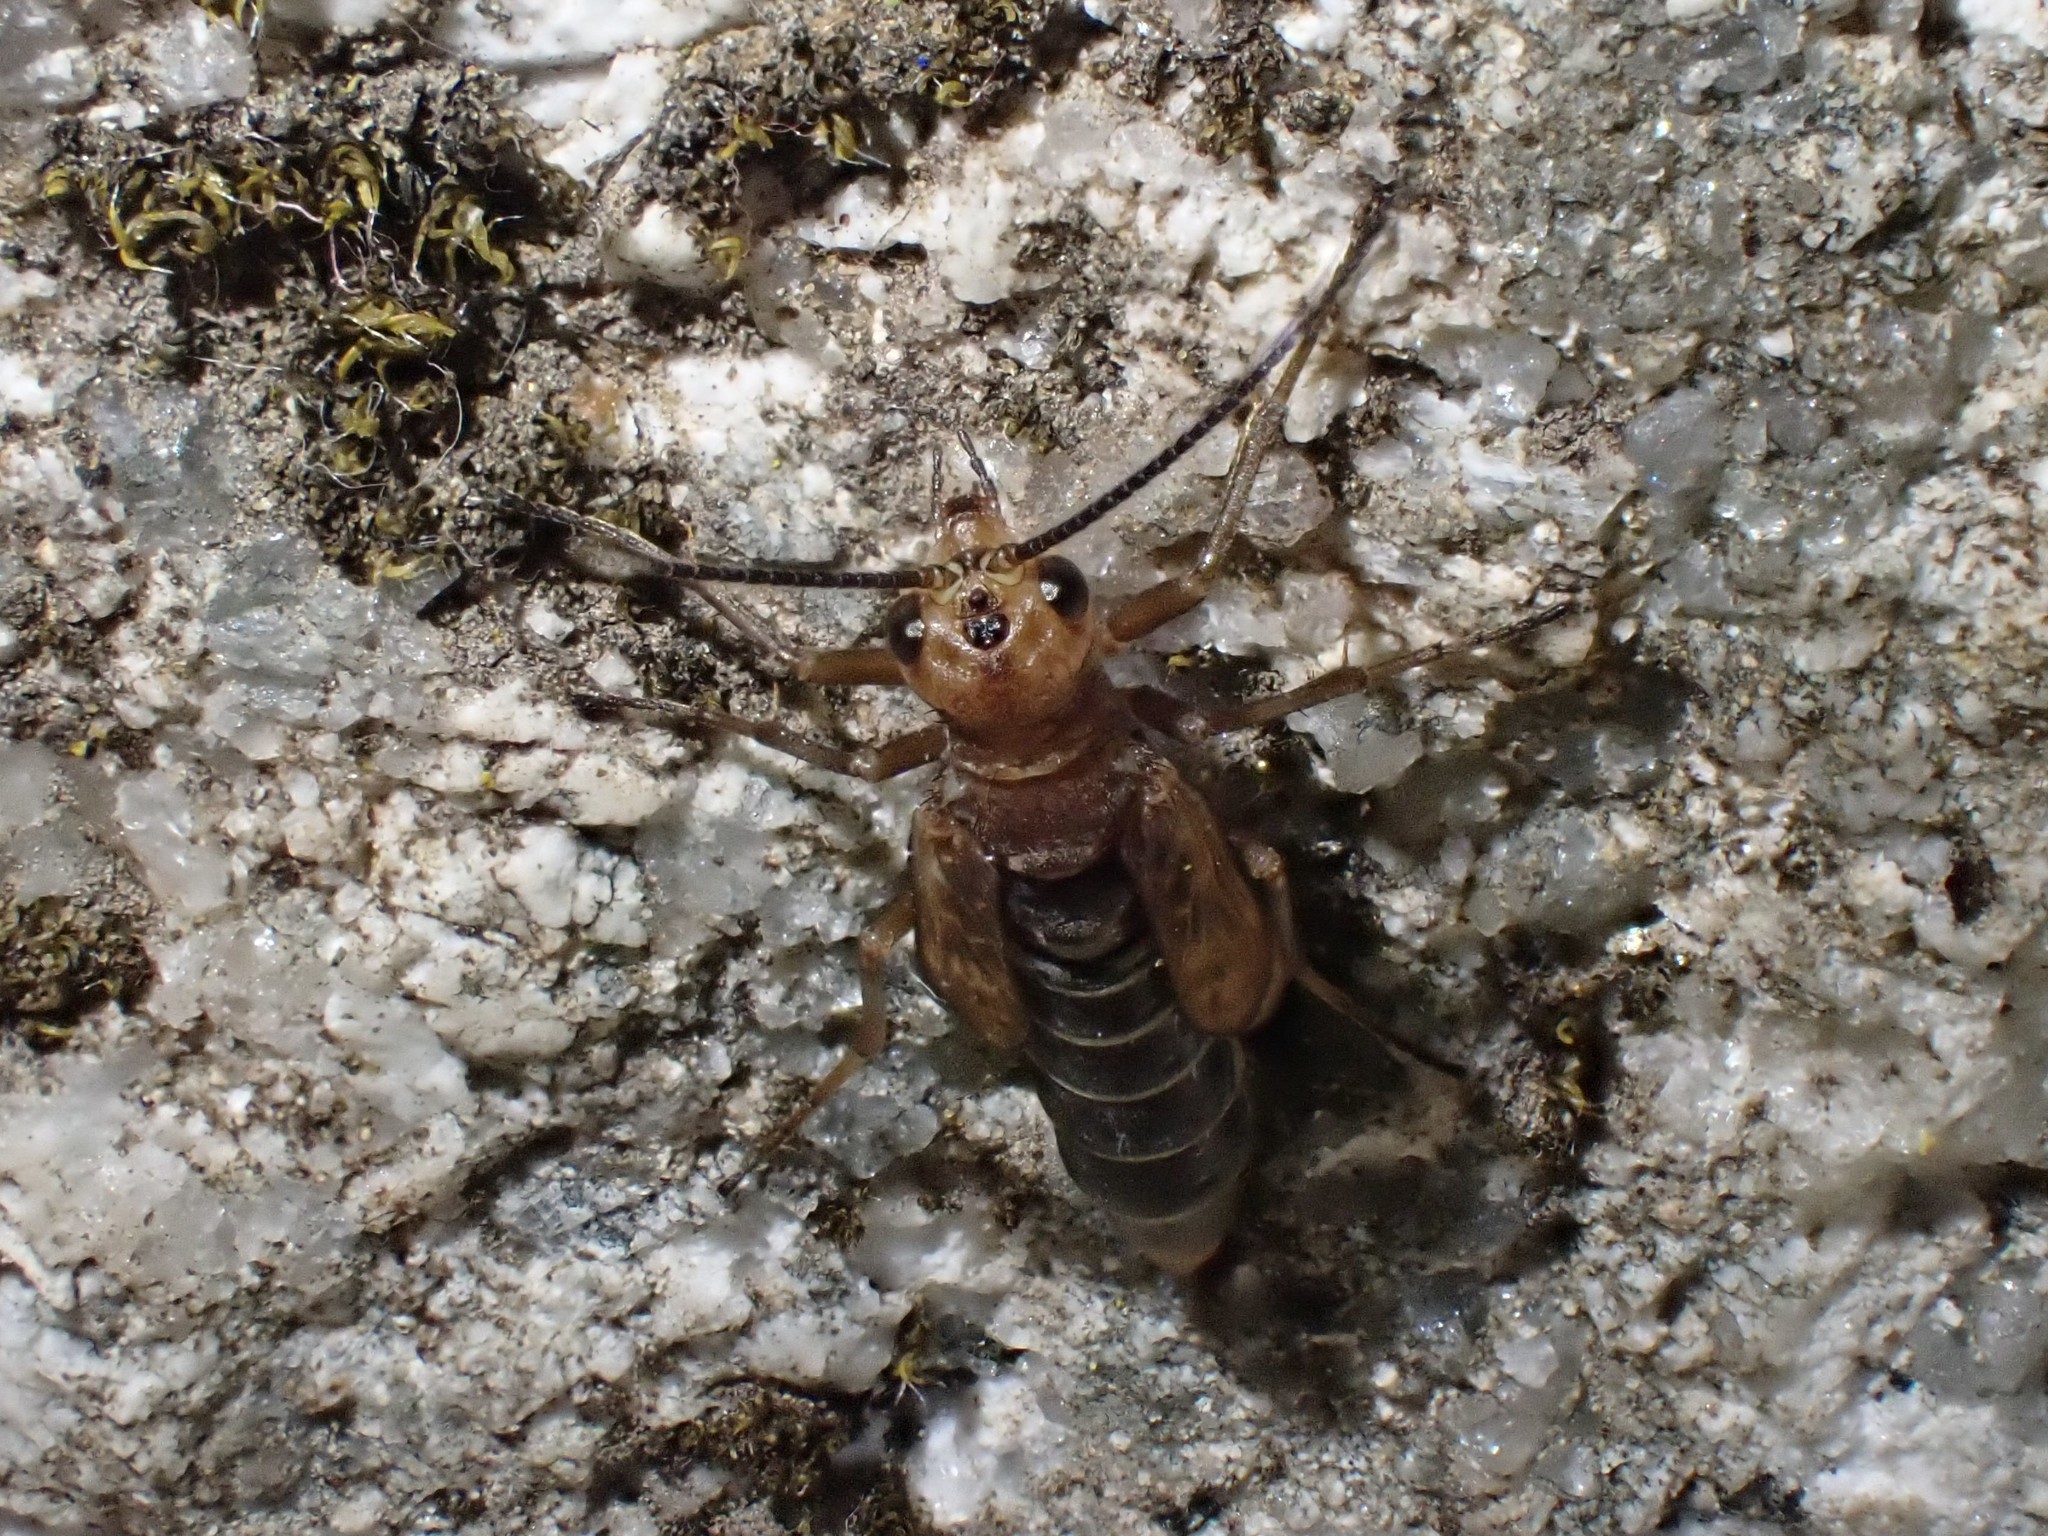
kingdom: Animalia
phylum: Arthropoda
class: Insecta
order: Mecoptera
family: Panorpodidae
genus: Brachypanorpa
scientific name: Brachypanorpa montana
